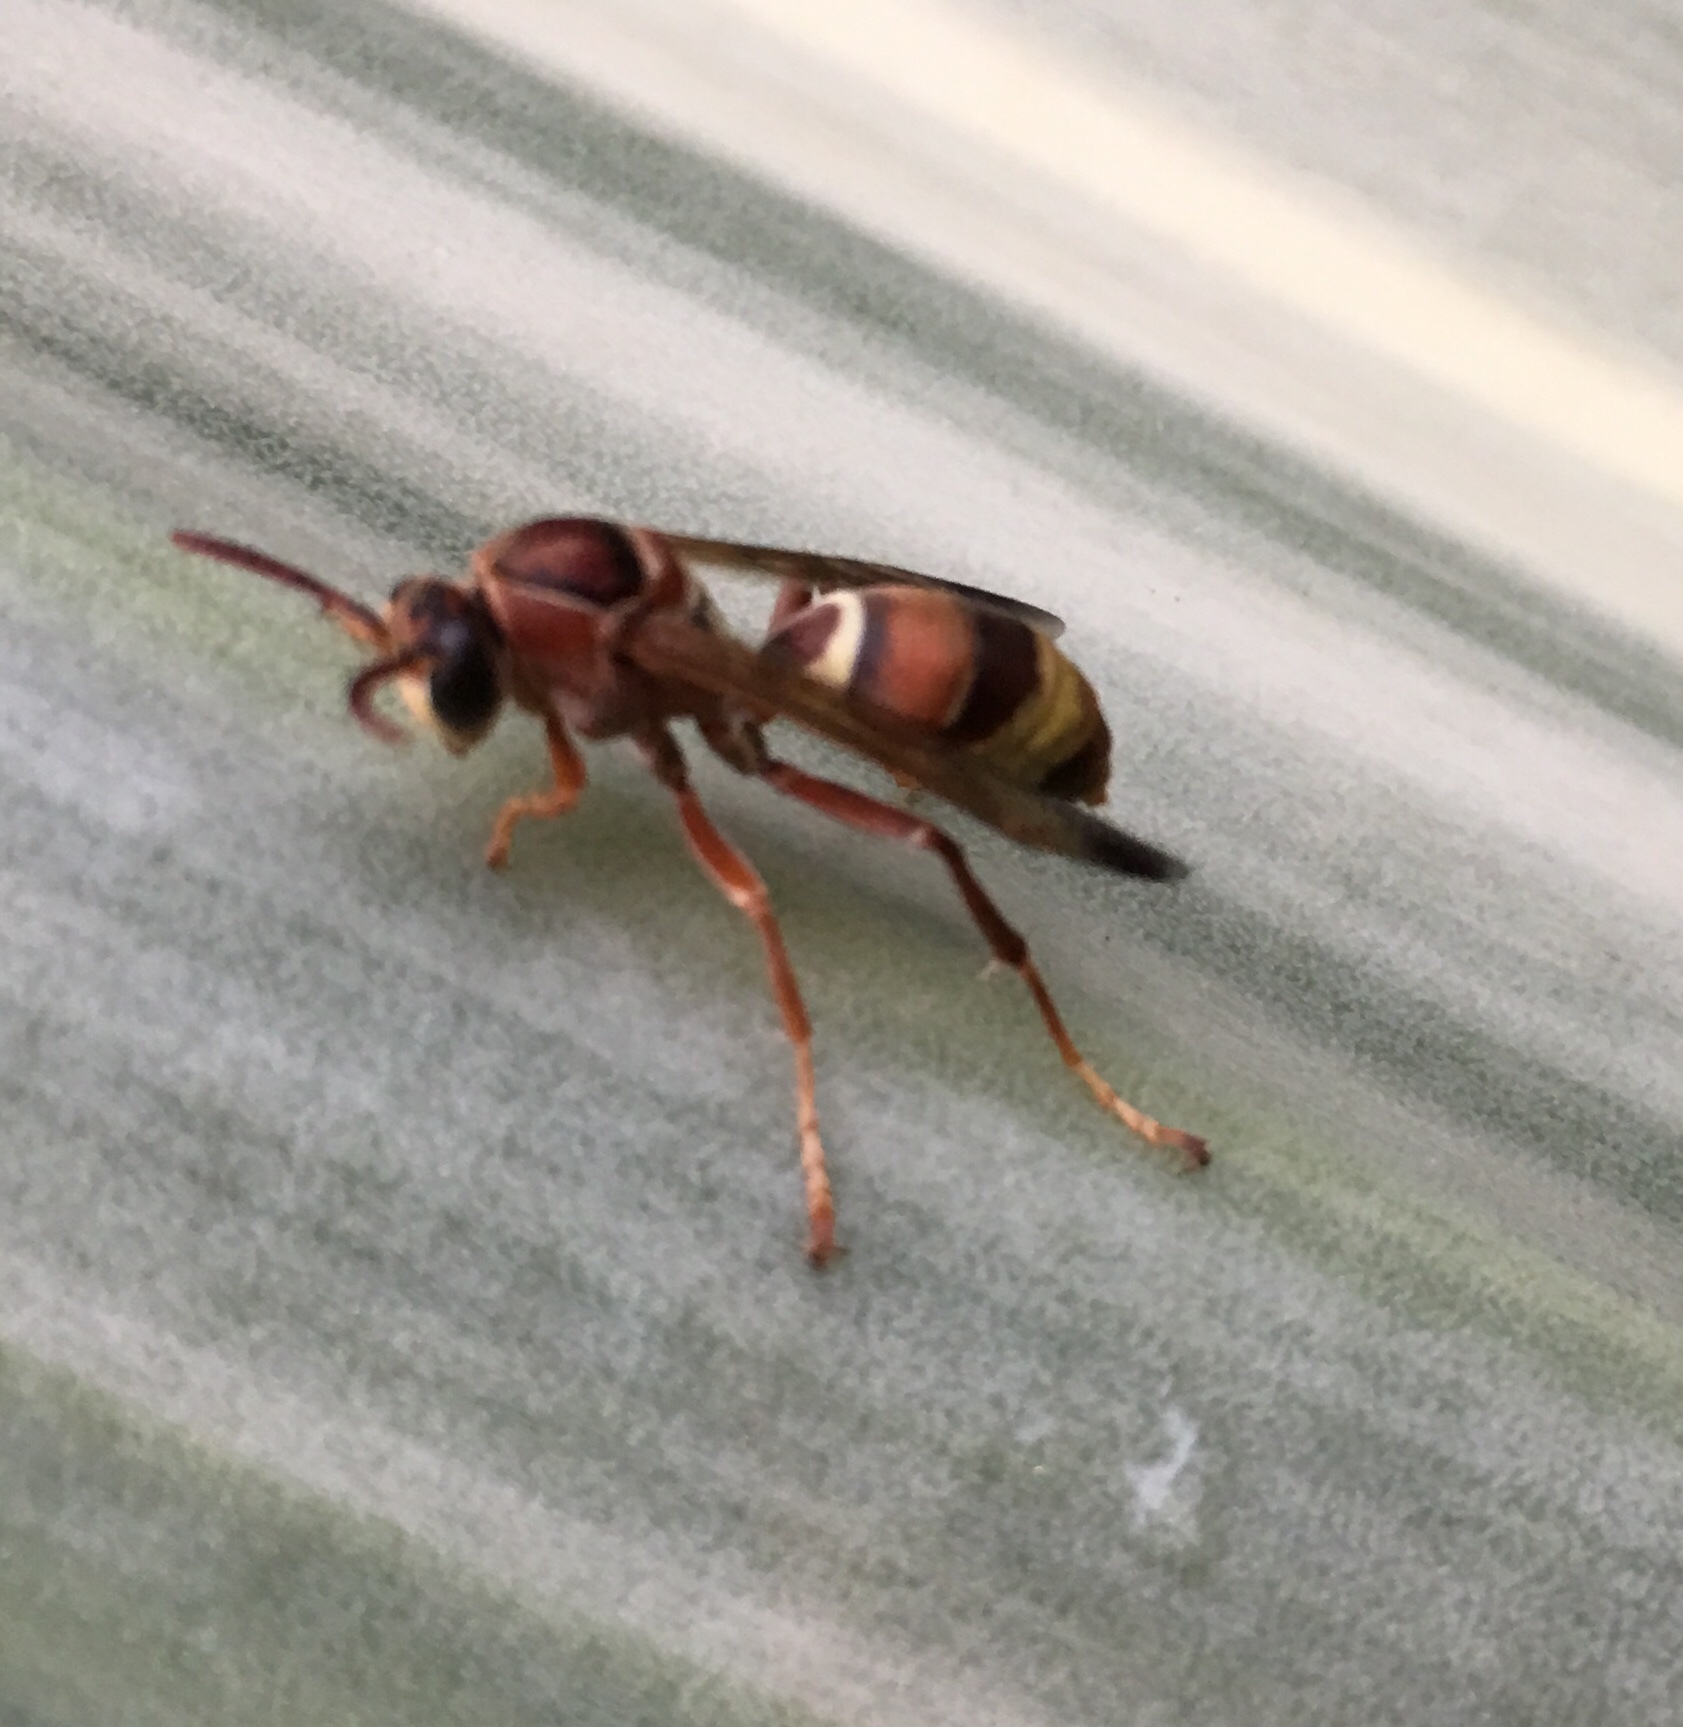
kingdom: Animalia
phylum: Arthropoda
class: Insecta
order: Hymenoptera
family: Eumenidae
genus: Polistes
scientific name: Polistes stigma
